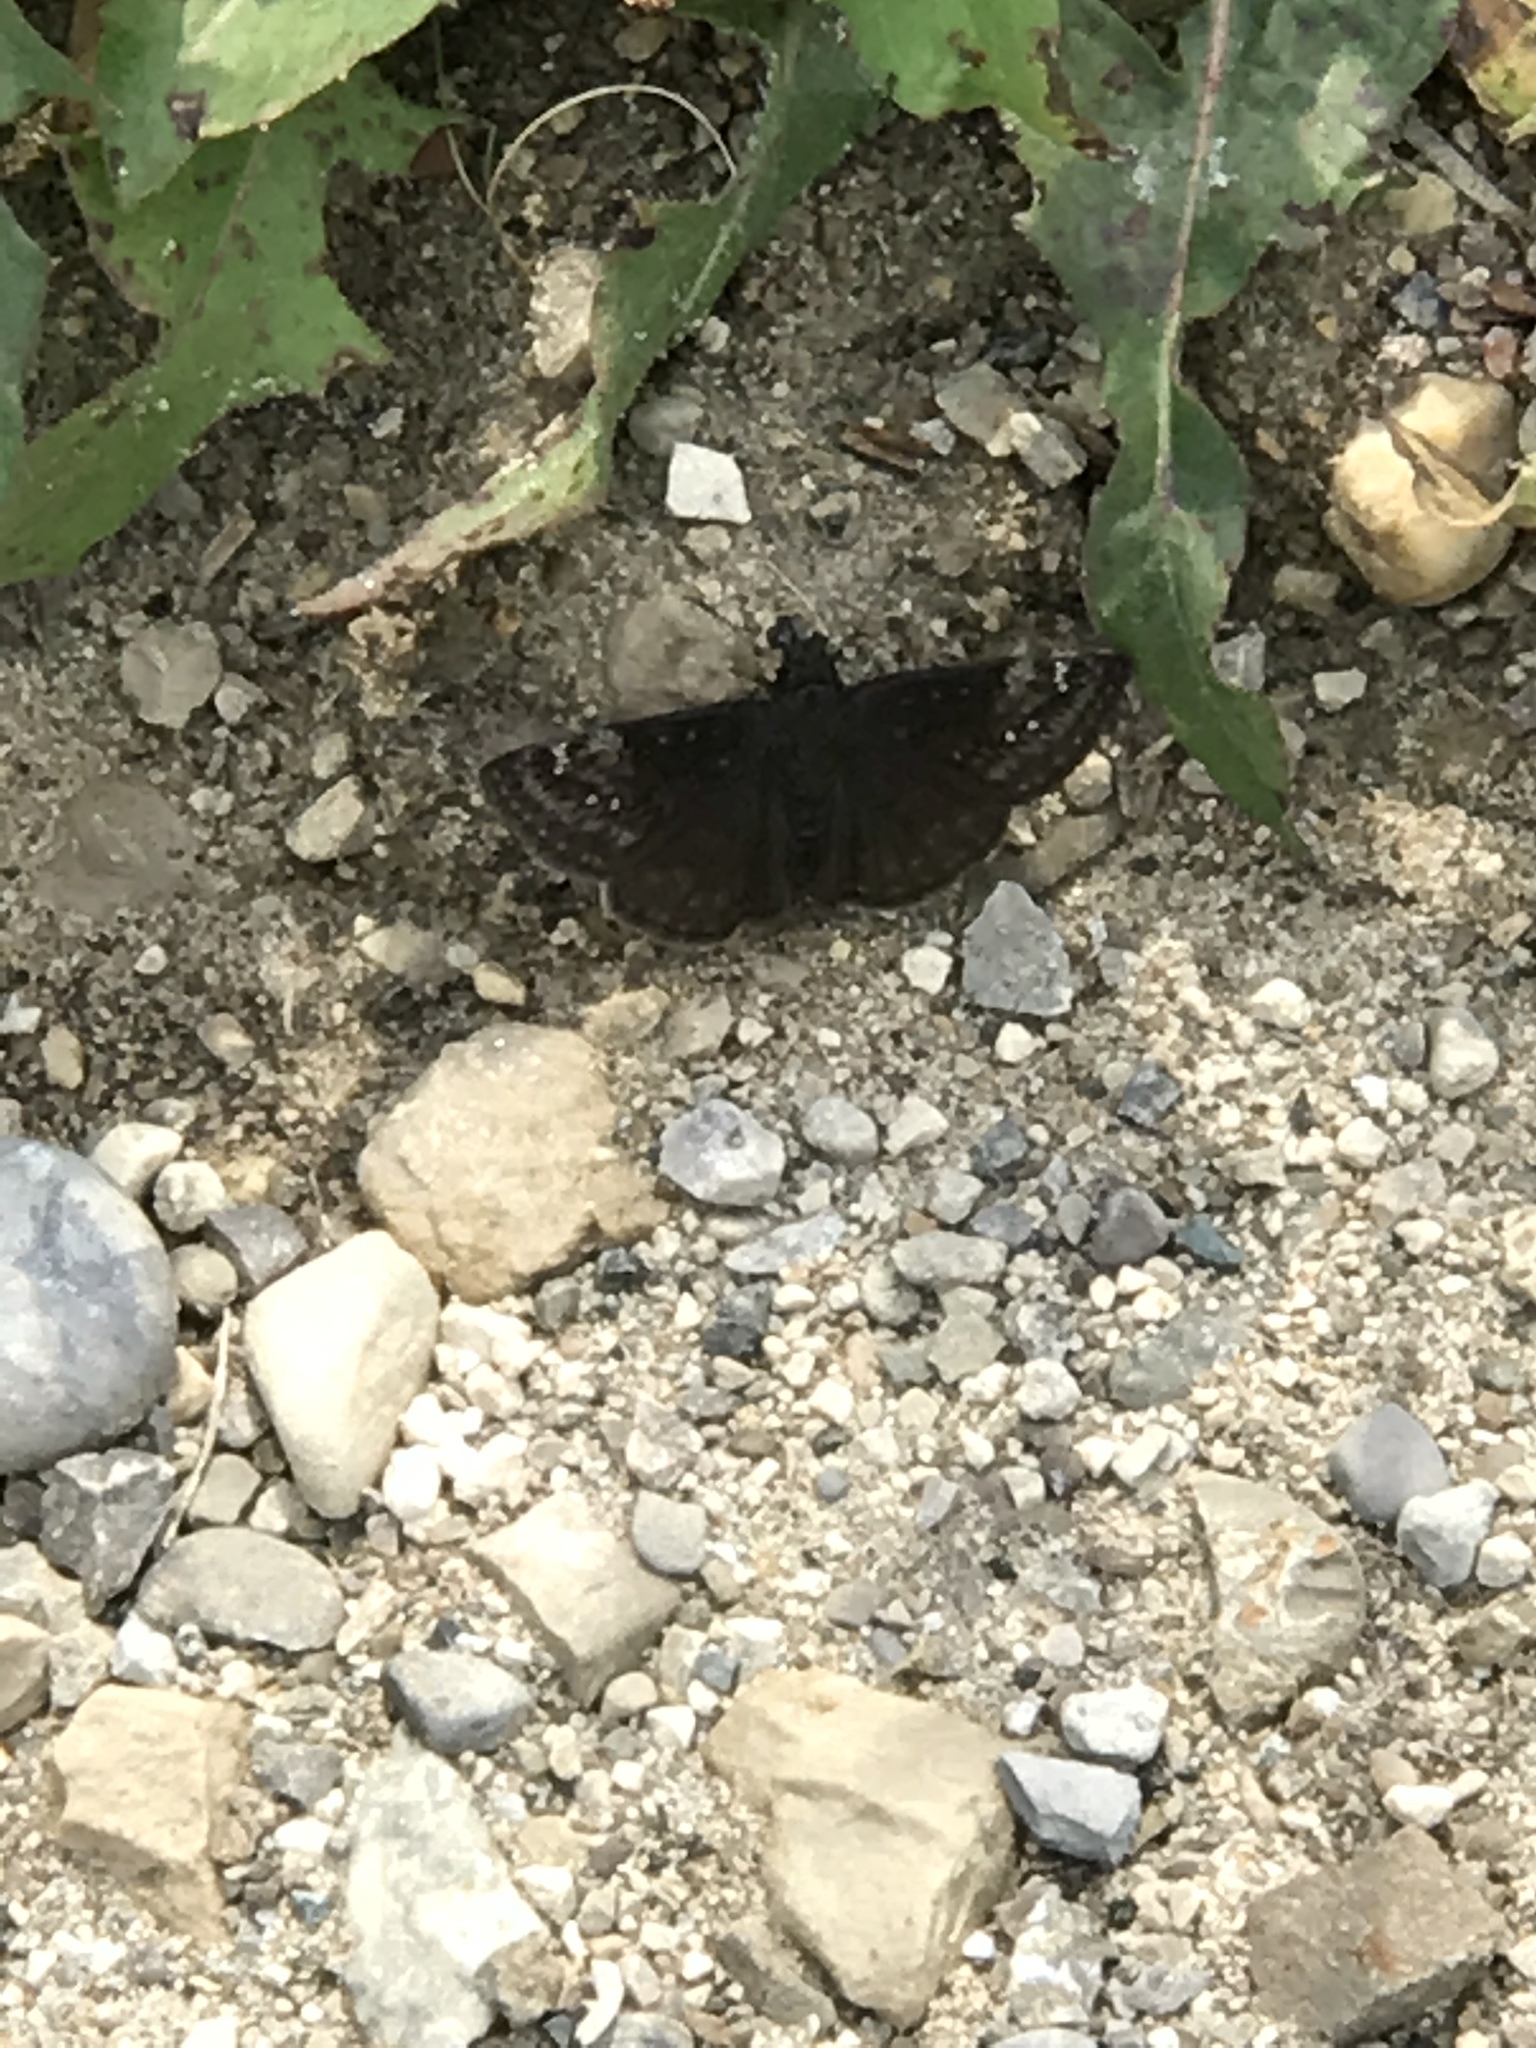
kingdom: Animalia
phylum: Arthropoda
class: Insecta
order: Lepidoptera
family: Hesperiidae
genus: Erynnis
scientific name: Erynnis baptisiae
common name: Wild indigo duskywing
